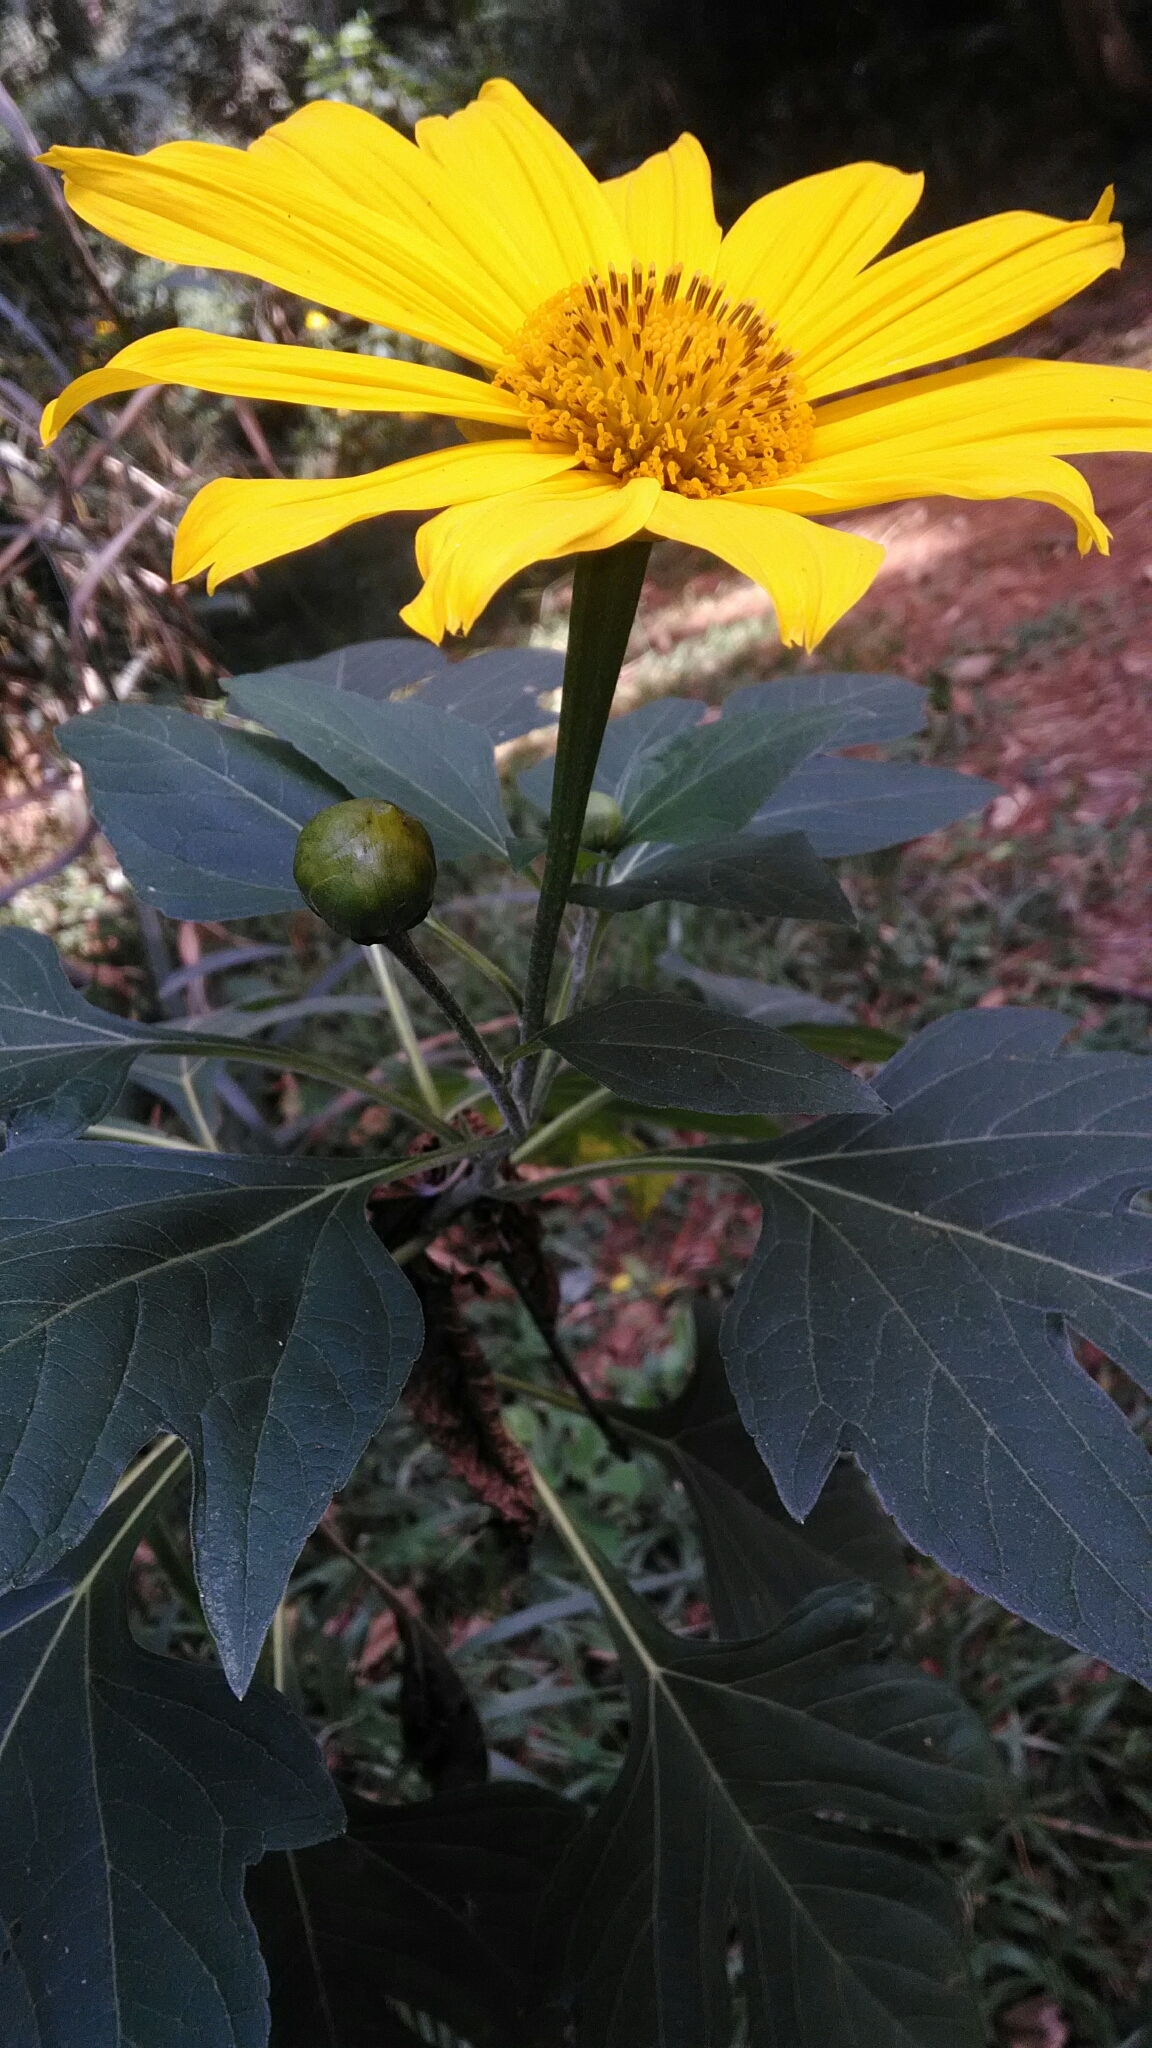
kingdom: Plantae
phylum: Tracheophyta
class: Magnoliopsida
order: Asterales
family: Asteraceae
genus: Tithonia
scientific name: Tithonia diversifolia
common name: Tree marigold
